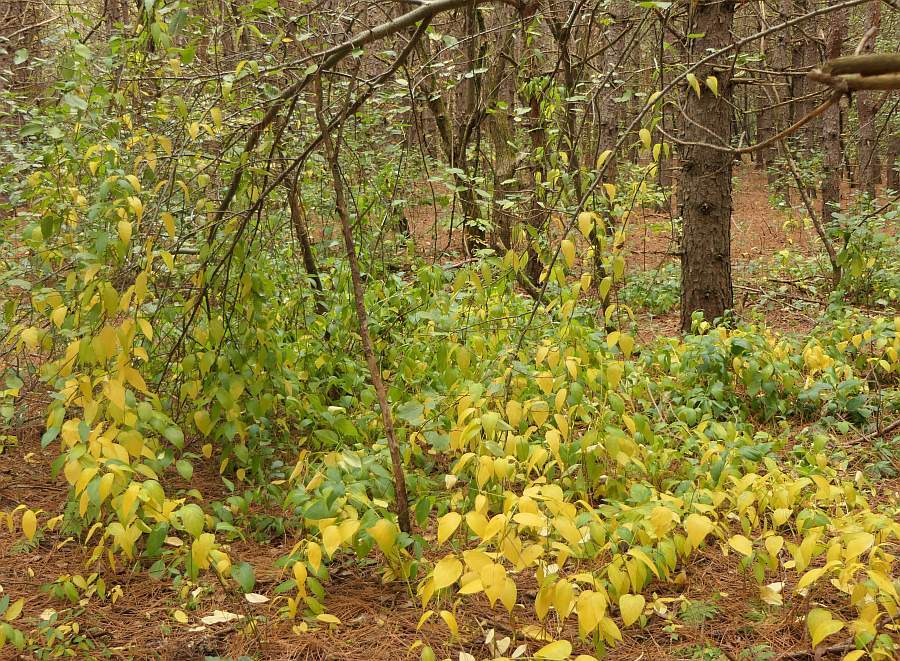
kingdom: Plantae
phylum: Tracheophyta
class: Magnoliopsida
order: Gentianales
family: Apocynaceae
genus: Vincetoxicum
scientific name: Vincetoxicum rossicum
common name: Dog-strangling vine
